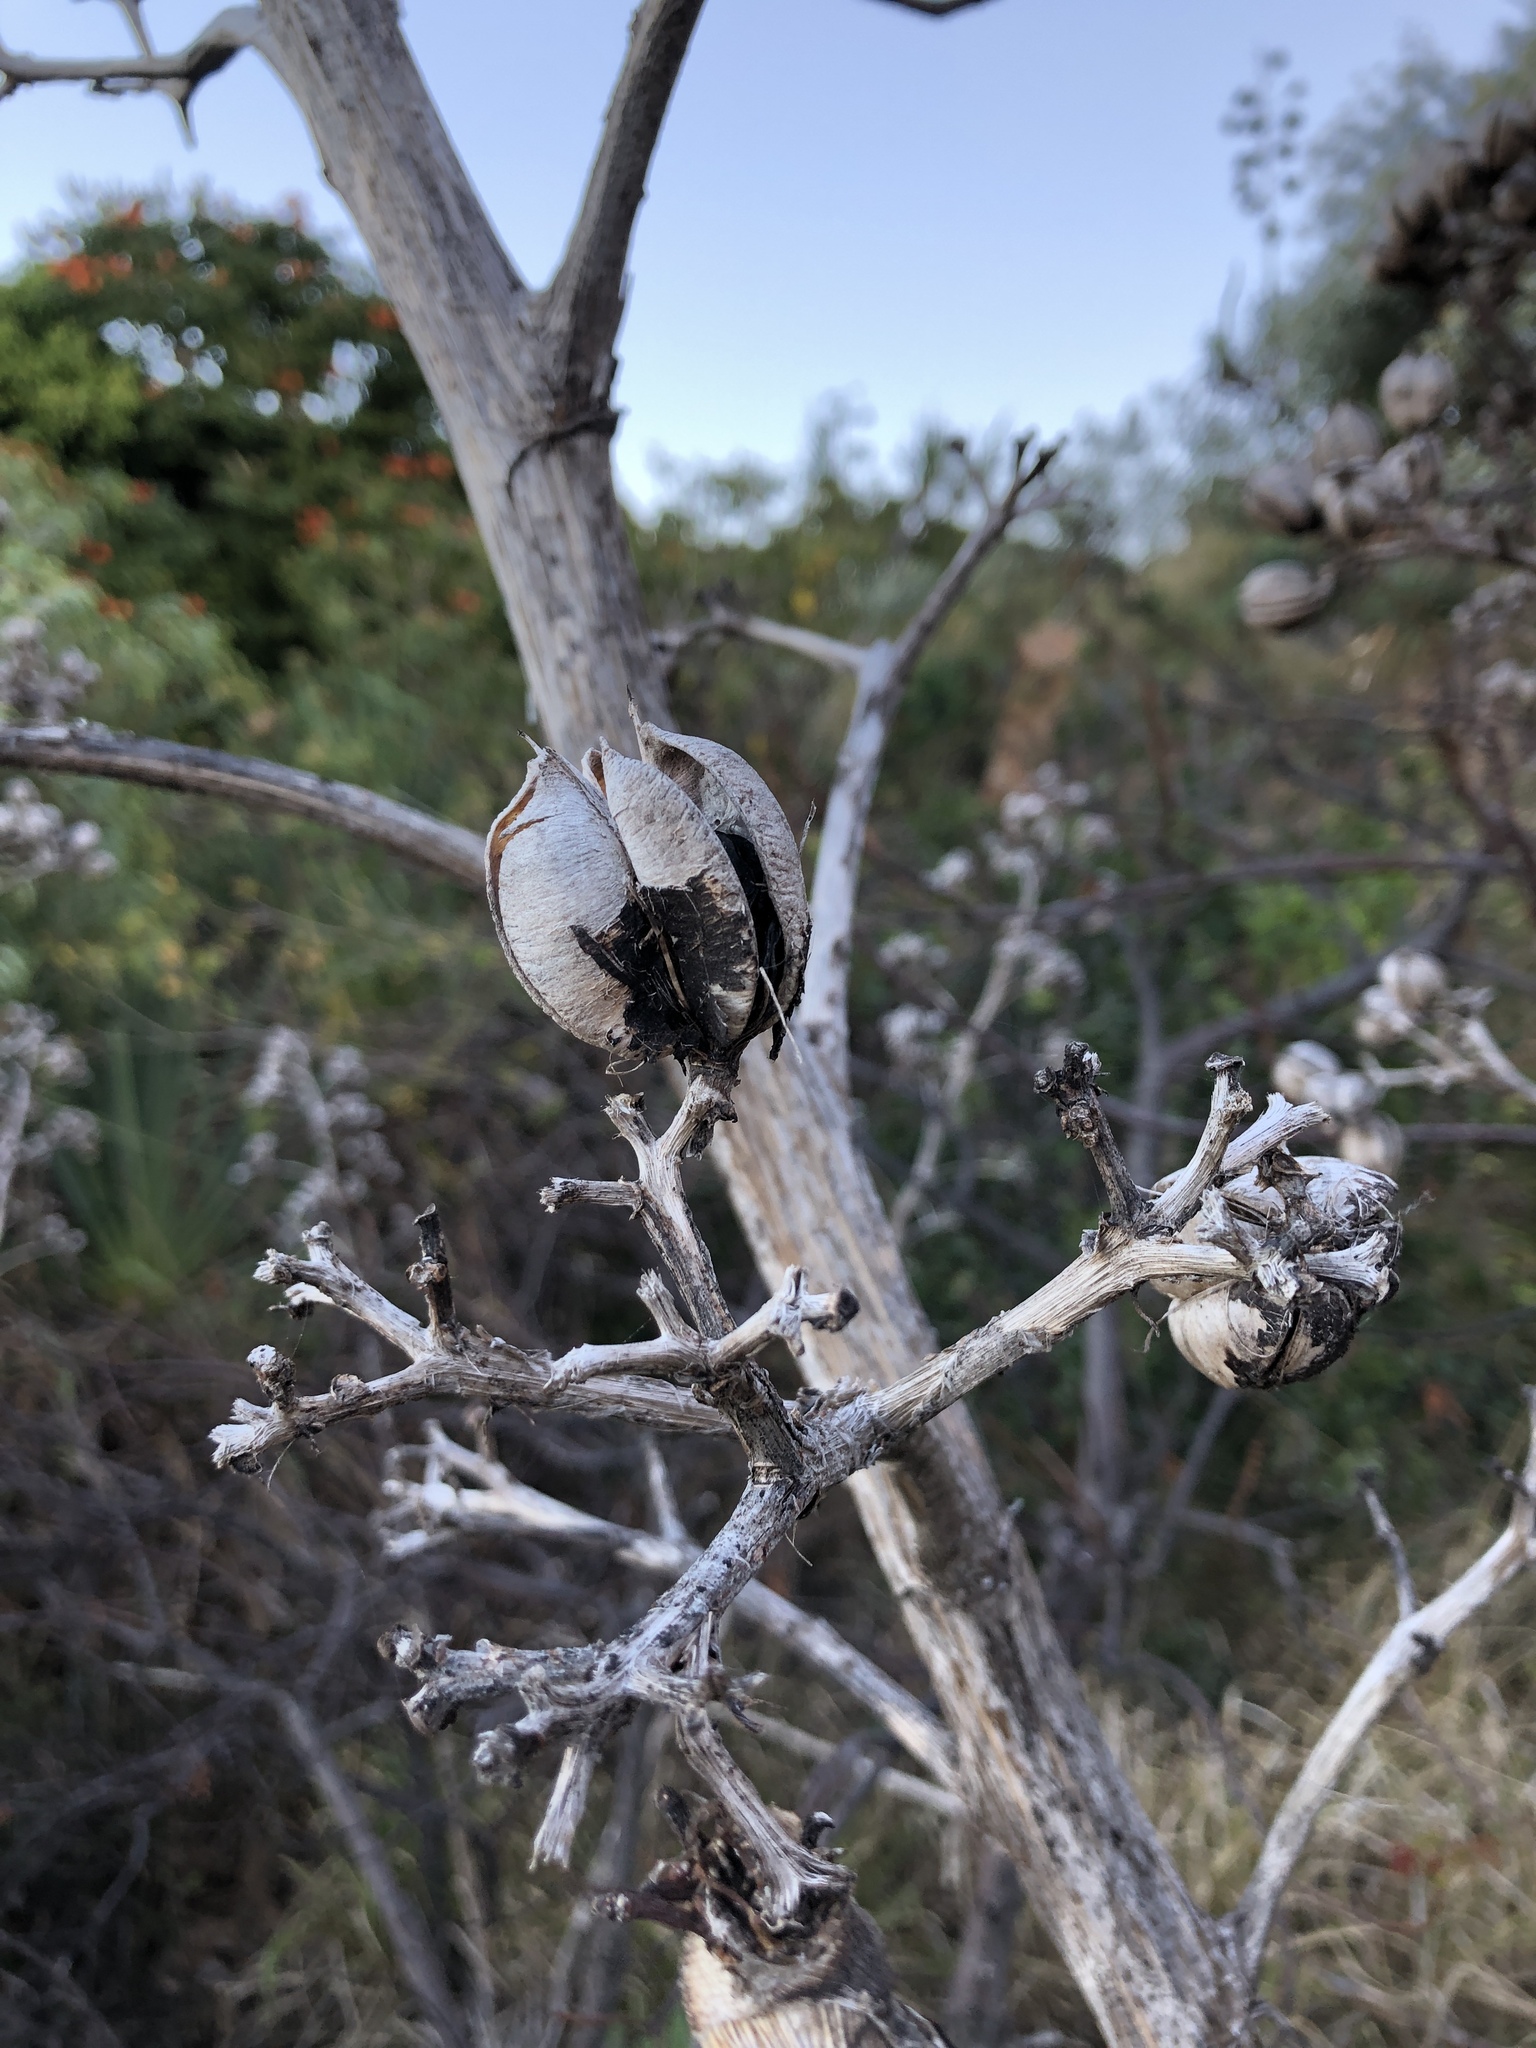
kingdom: Plantae
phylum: Tracheophyta
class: Liliopsida
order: Asparagales
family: Asparagaceae
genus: Agave
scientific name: Agave vivipara
